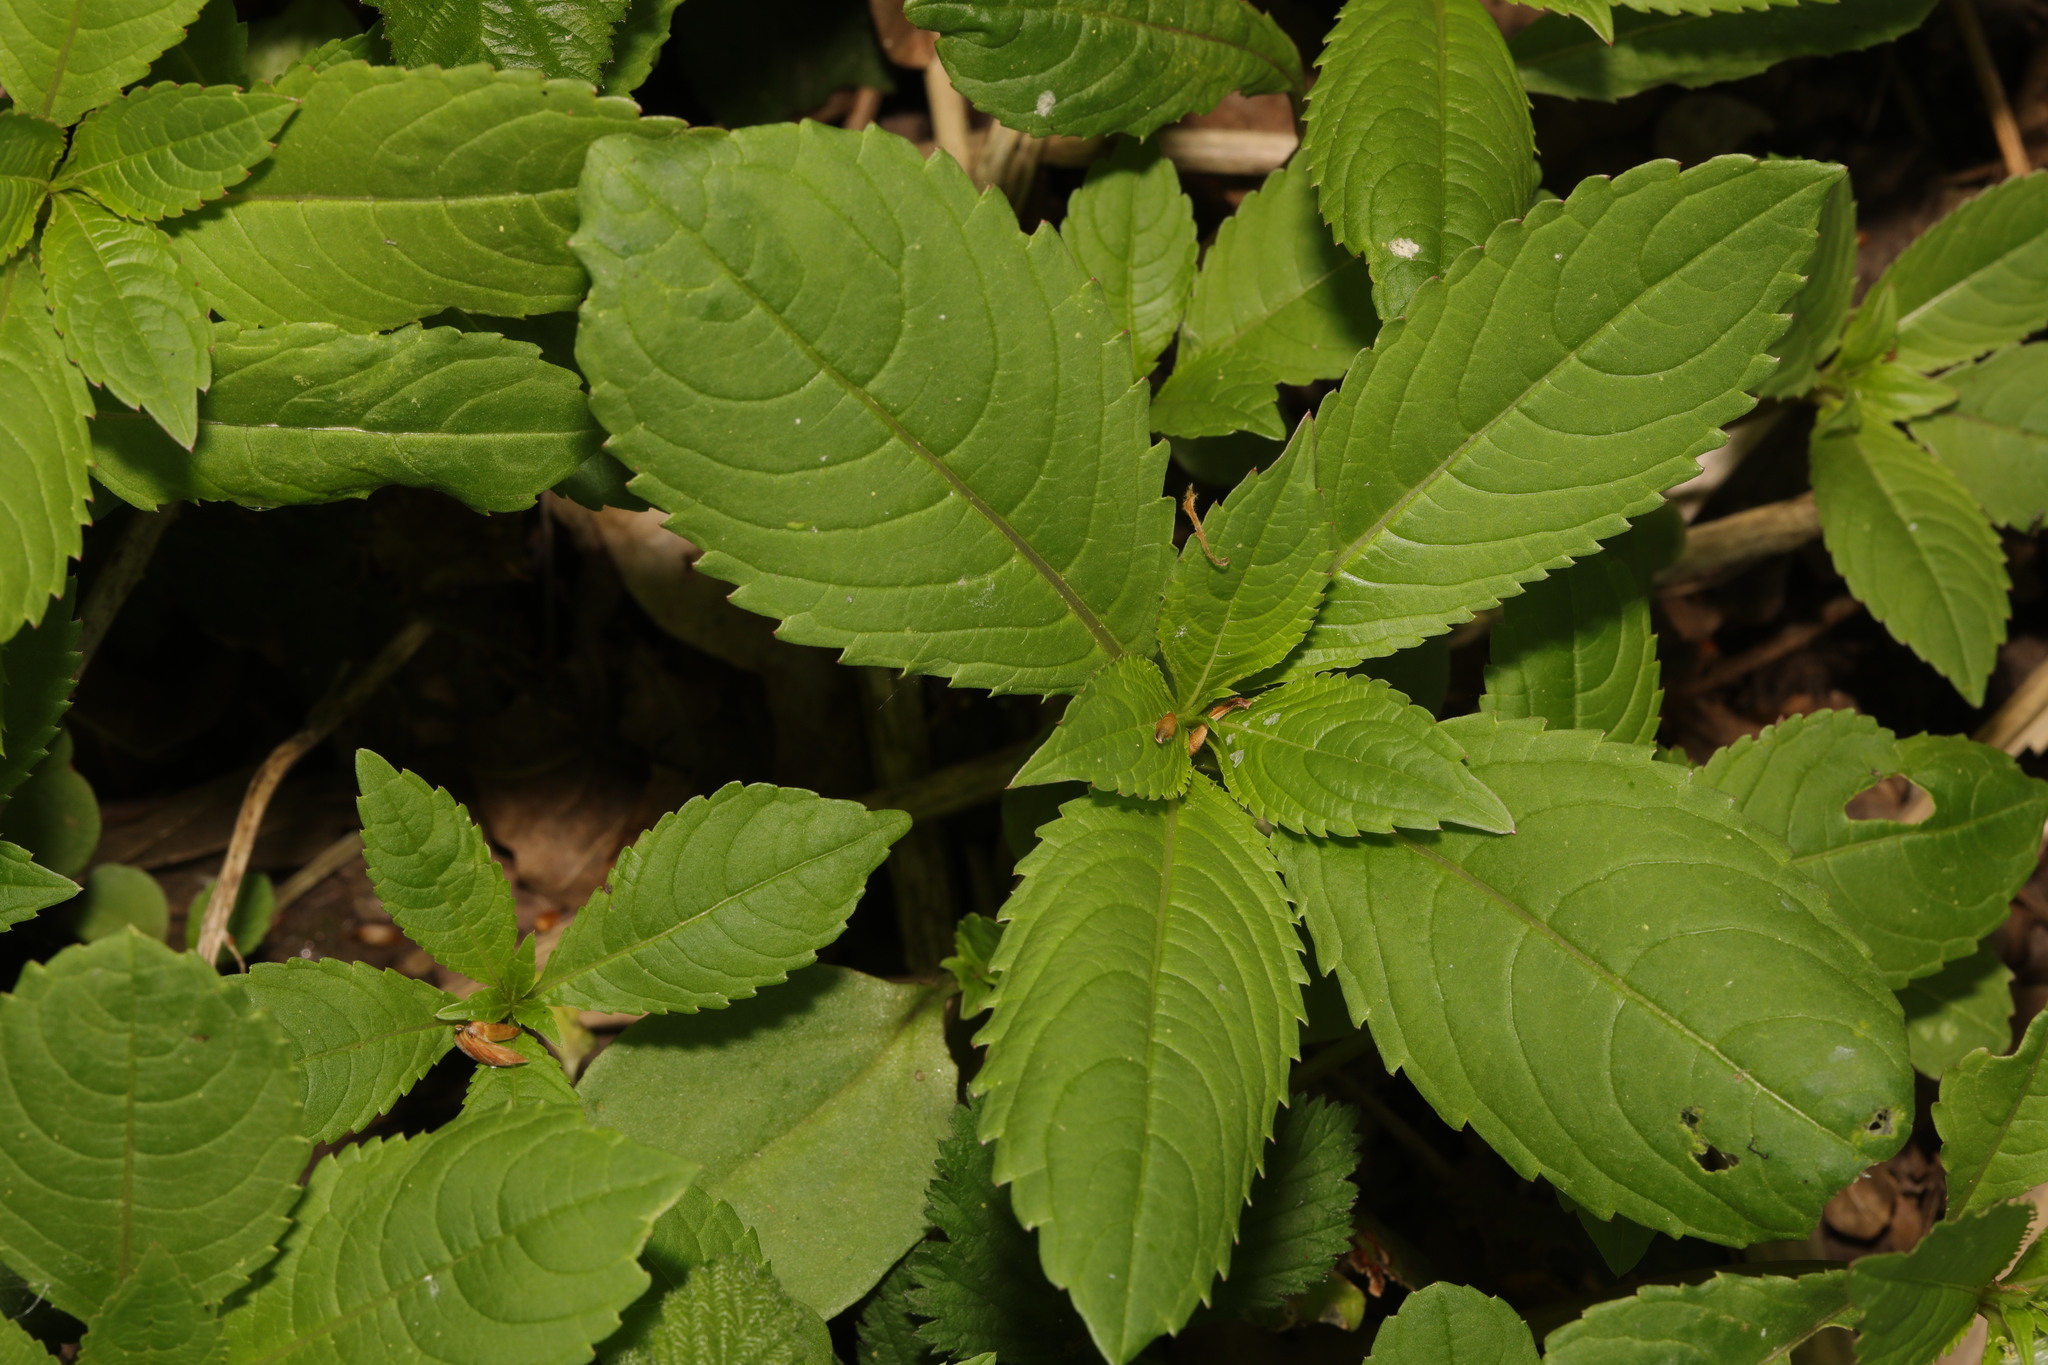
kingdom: Plantae
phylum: Tracheophyta
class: Magnoliopsida
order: Ericales
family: Balsaminaceae
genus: Impatiens
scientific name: Impatiens glandulifera
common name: Himalayan balsam
